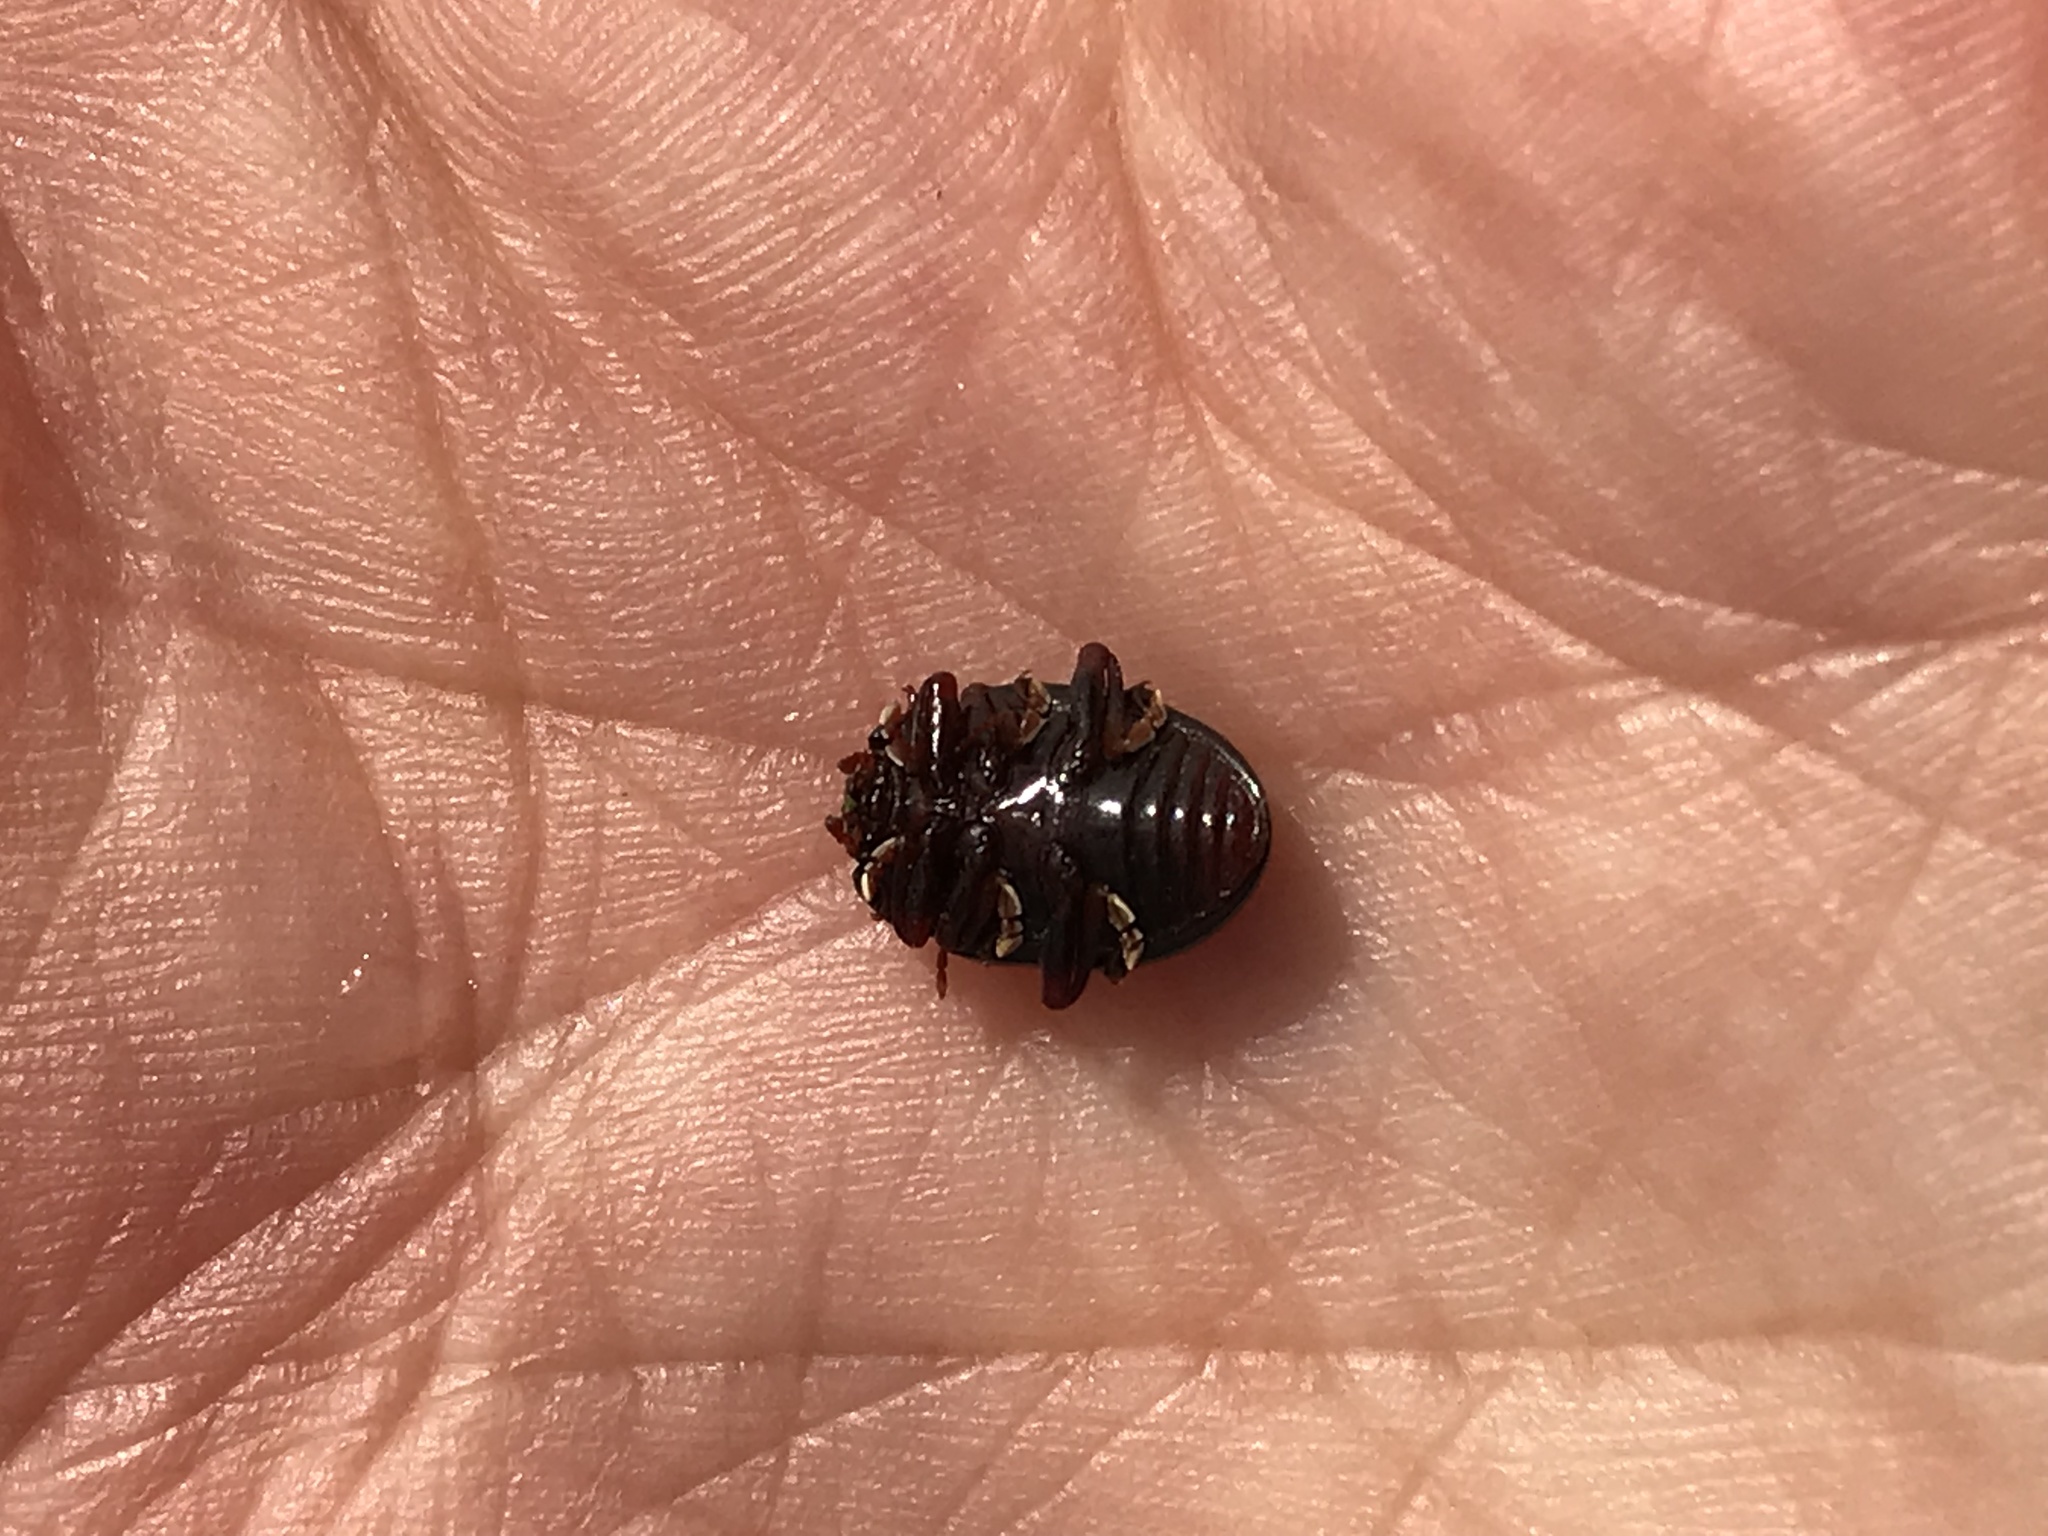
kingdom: Animalia
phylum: Arthropoda
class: Insecta
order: Coleoptera
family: Chrysomelidae
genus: Chrysolina
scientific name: Chrysolina bankii
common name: Leaf beetle
